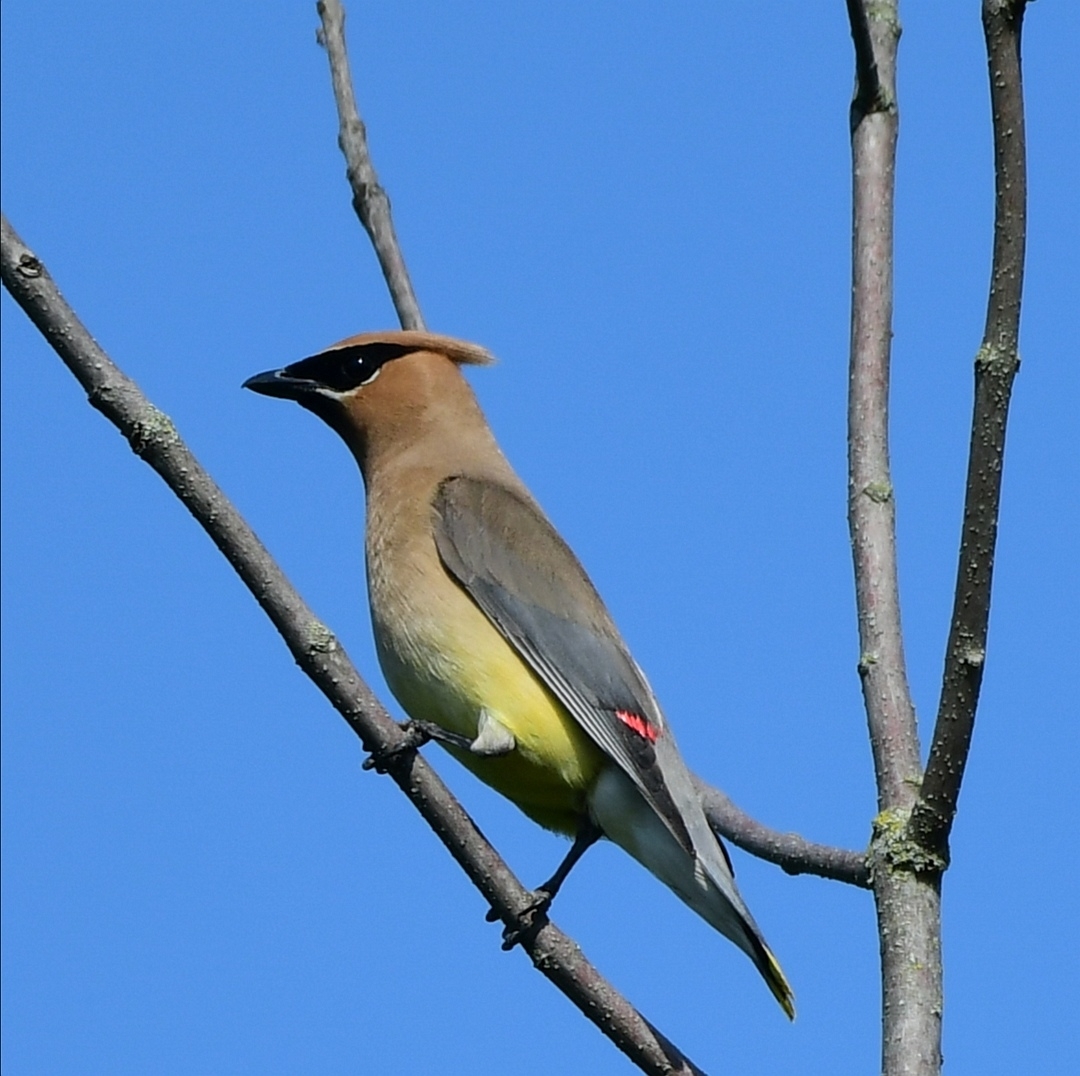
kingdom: Animalia
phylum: Chordata
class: Aves
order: Passeriformes
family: Bombycillidae
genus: Bombycilla
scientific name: Bombycilla cedrorum
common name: Cedar waxwing
